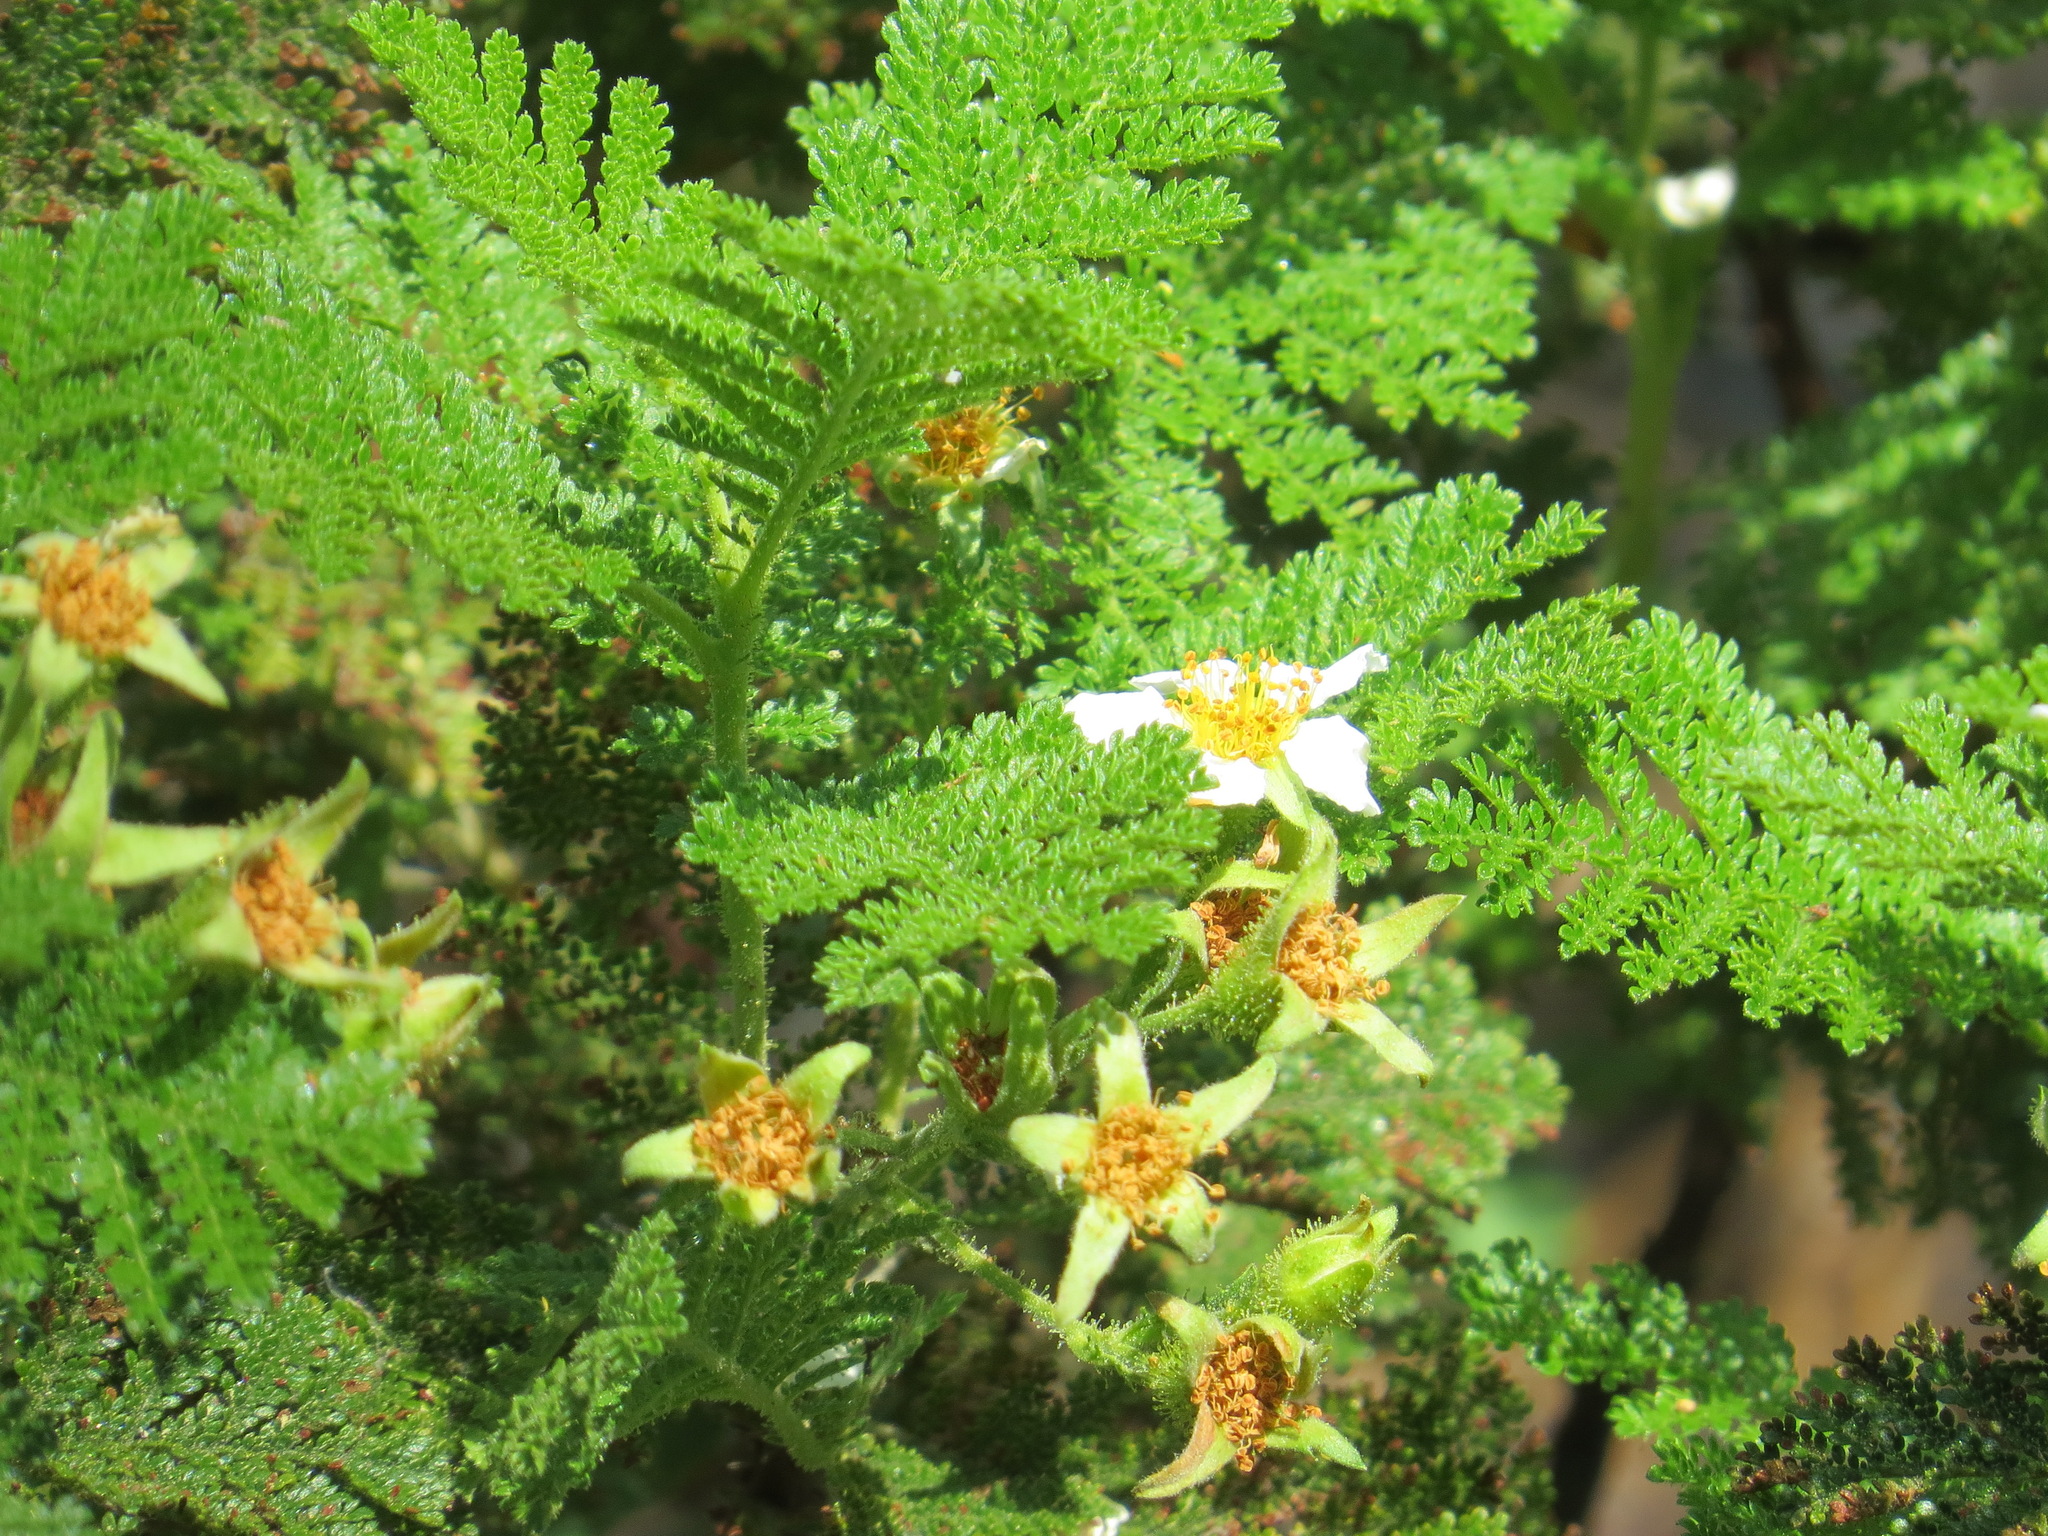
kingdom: Plantae
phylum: Tracheophyta
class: Magnoliopsida
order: Rosales
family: Rosaceae
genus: Chamaebatia
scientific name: Chamaebatia foliolosa
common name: Mountain misery
